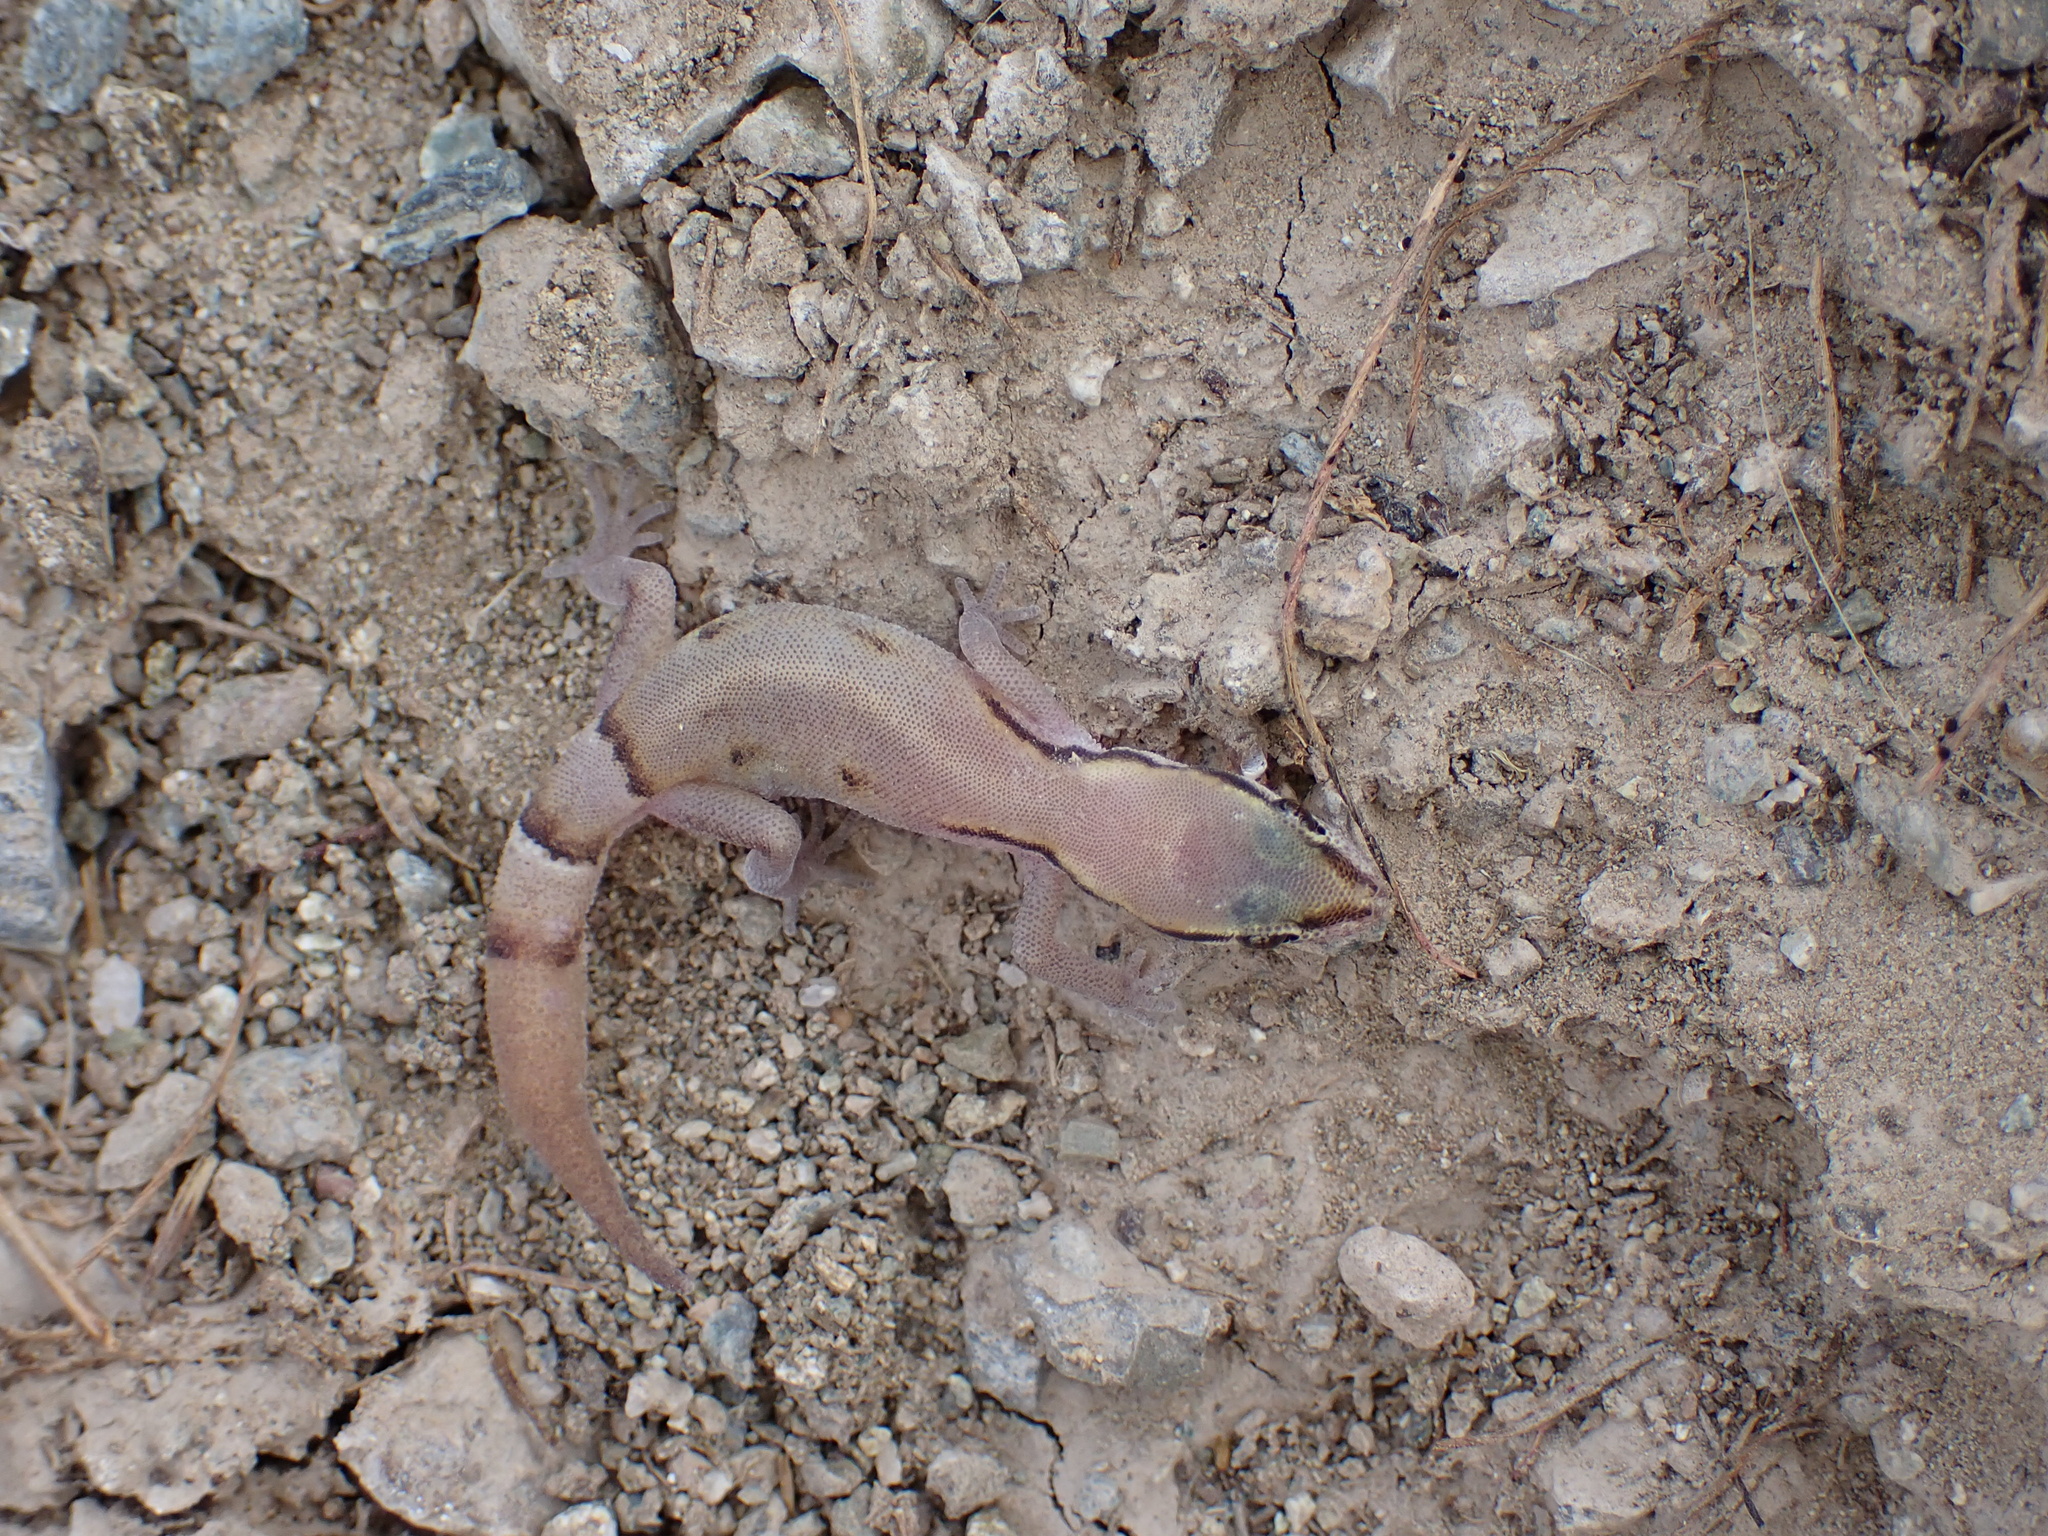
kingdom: Animalia
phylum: Chordata
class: Squamata
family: Gekkonidae
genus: Microgecko
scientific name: Microgecko persicus
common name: Persian dwarf gecko
